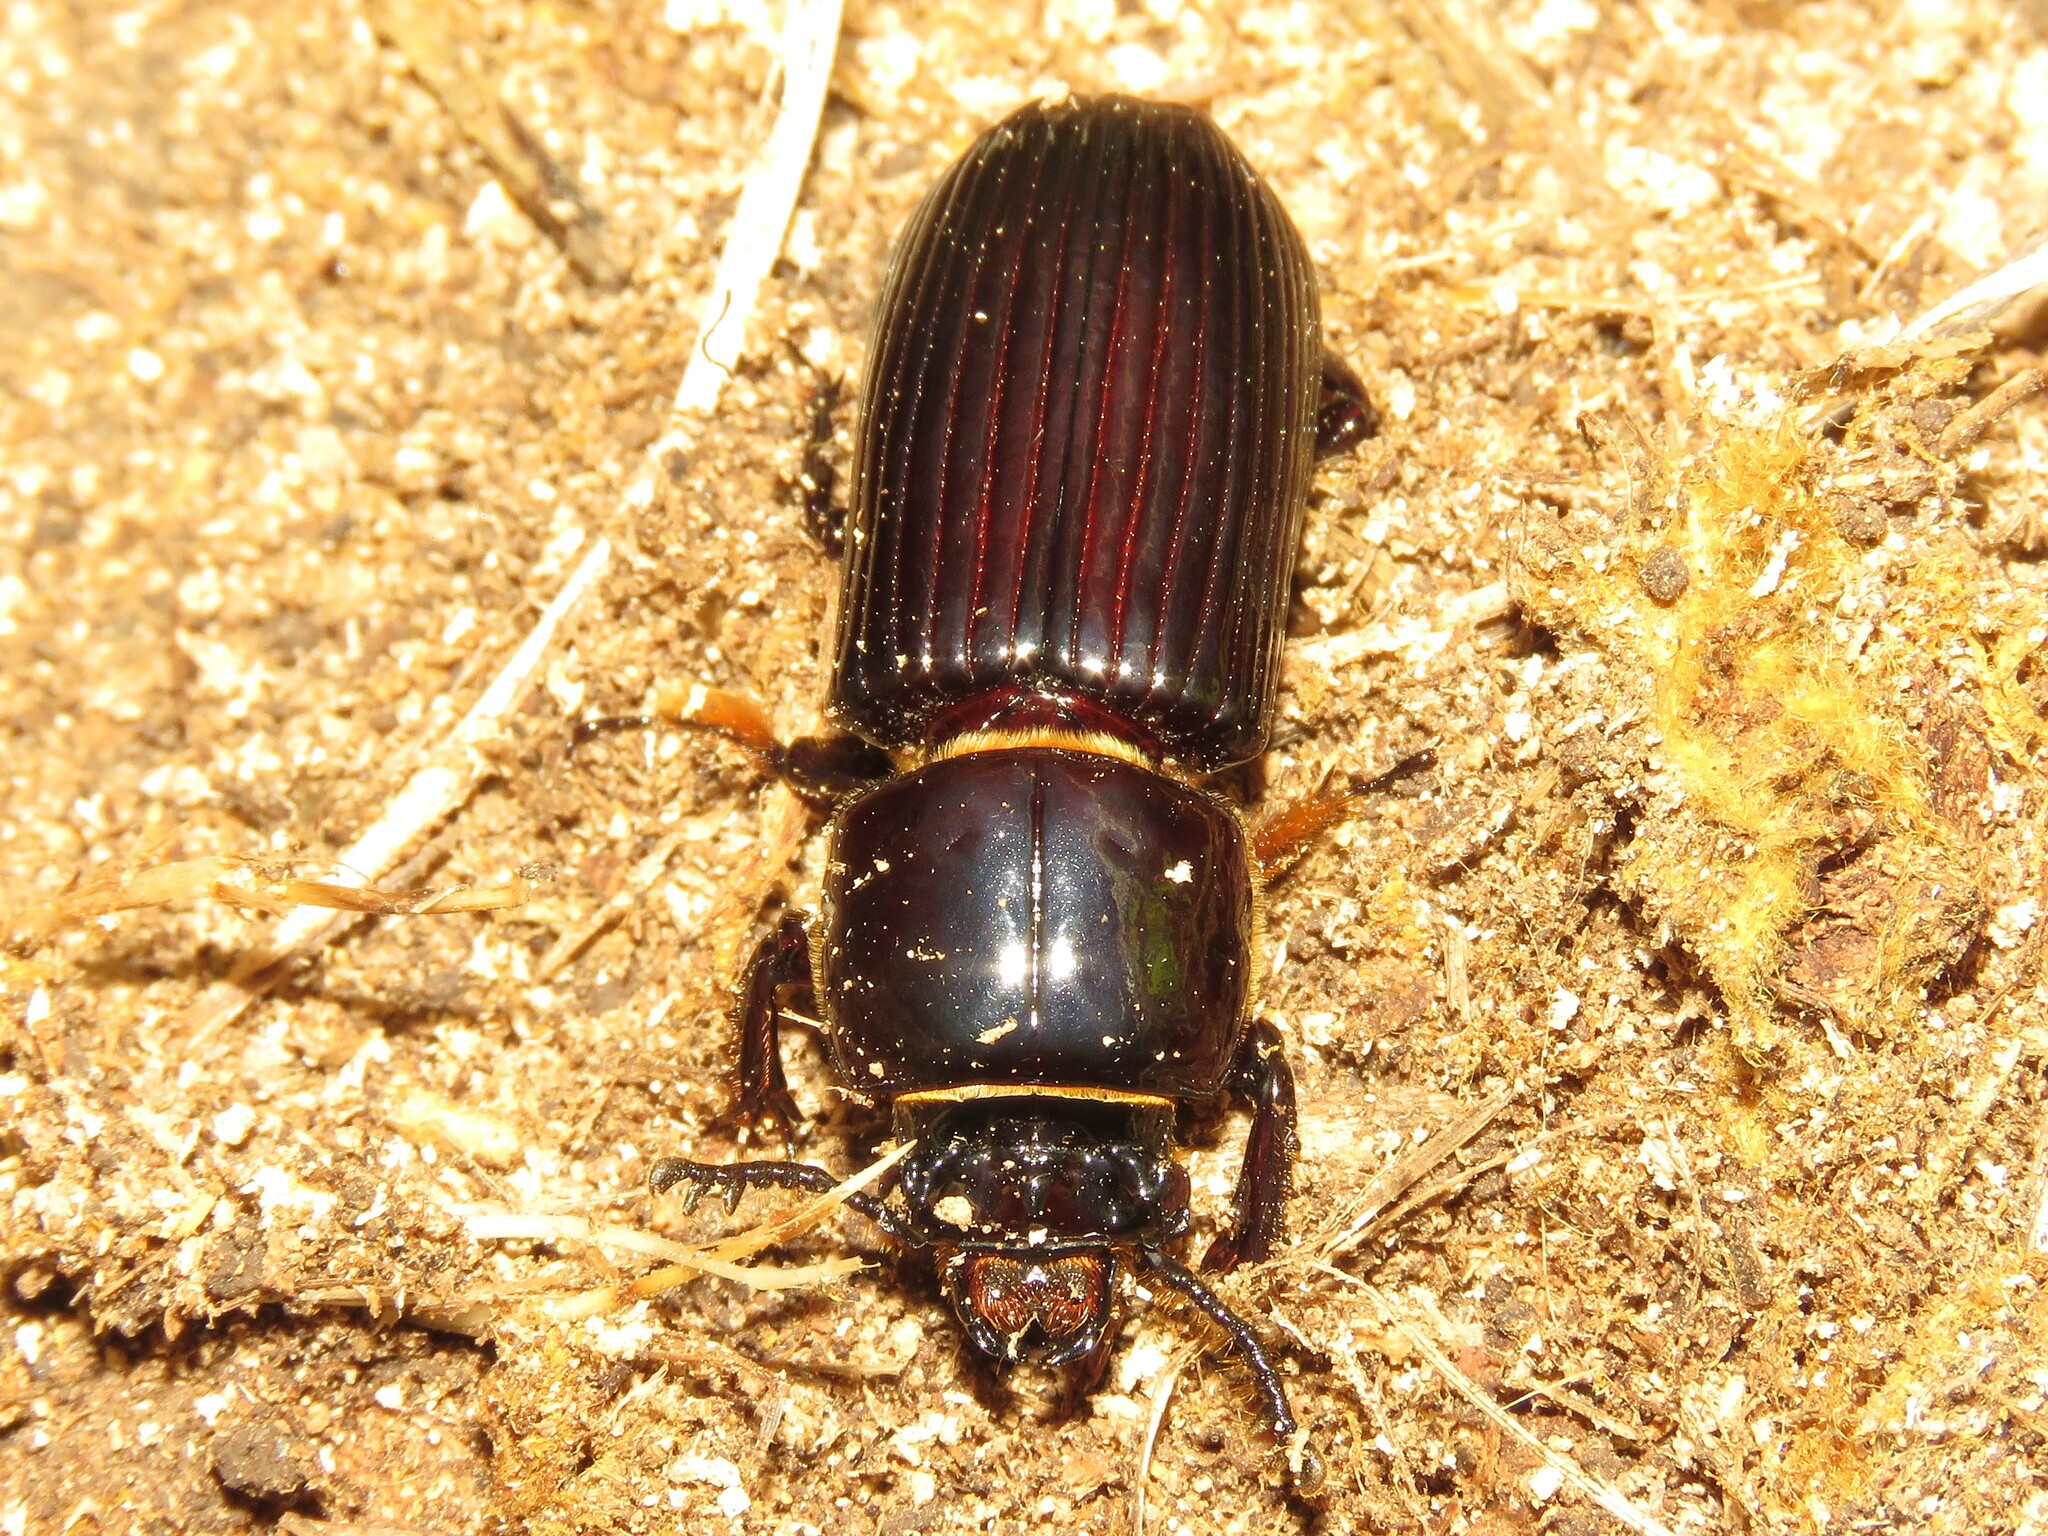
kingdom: Animalia
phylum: Arthropoda
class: Insecta
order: Coleoptera
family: Passalidae
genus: Odontotaenius
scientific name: Odontotaenius disjunctus
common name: Patent leather beetle
